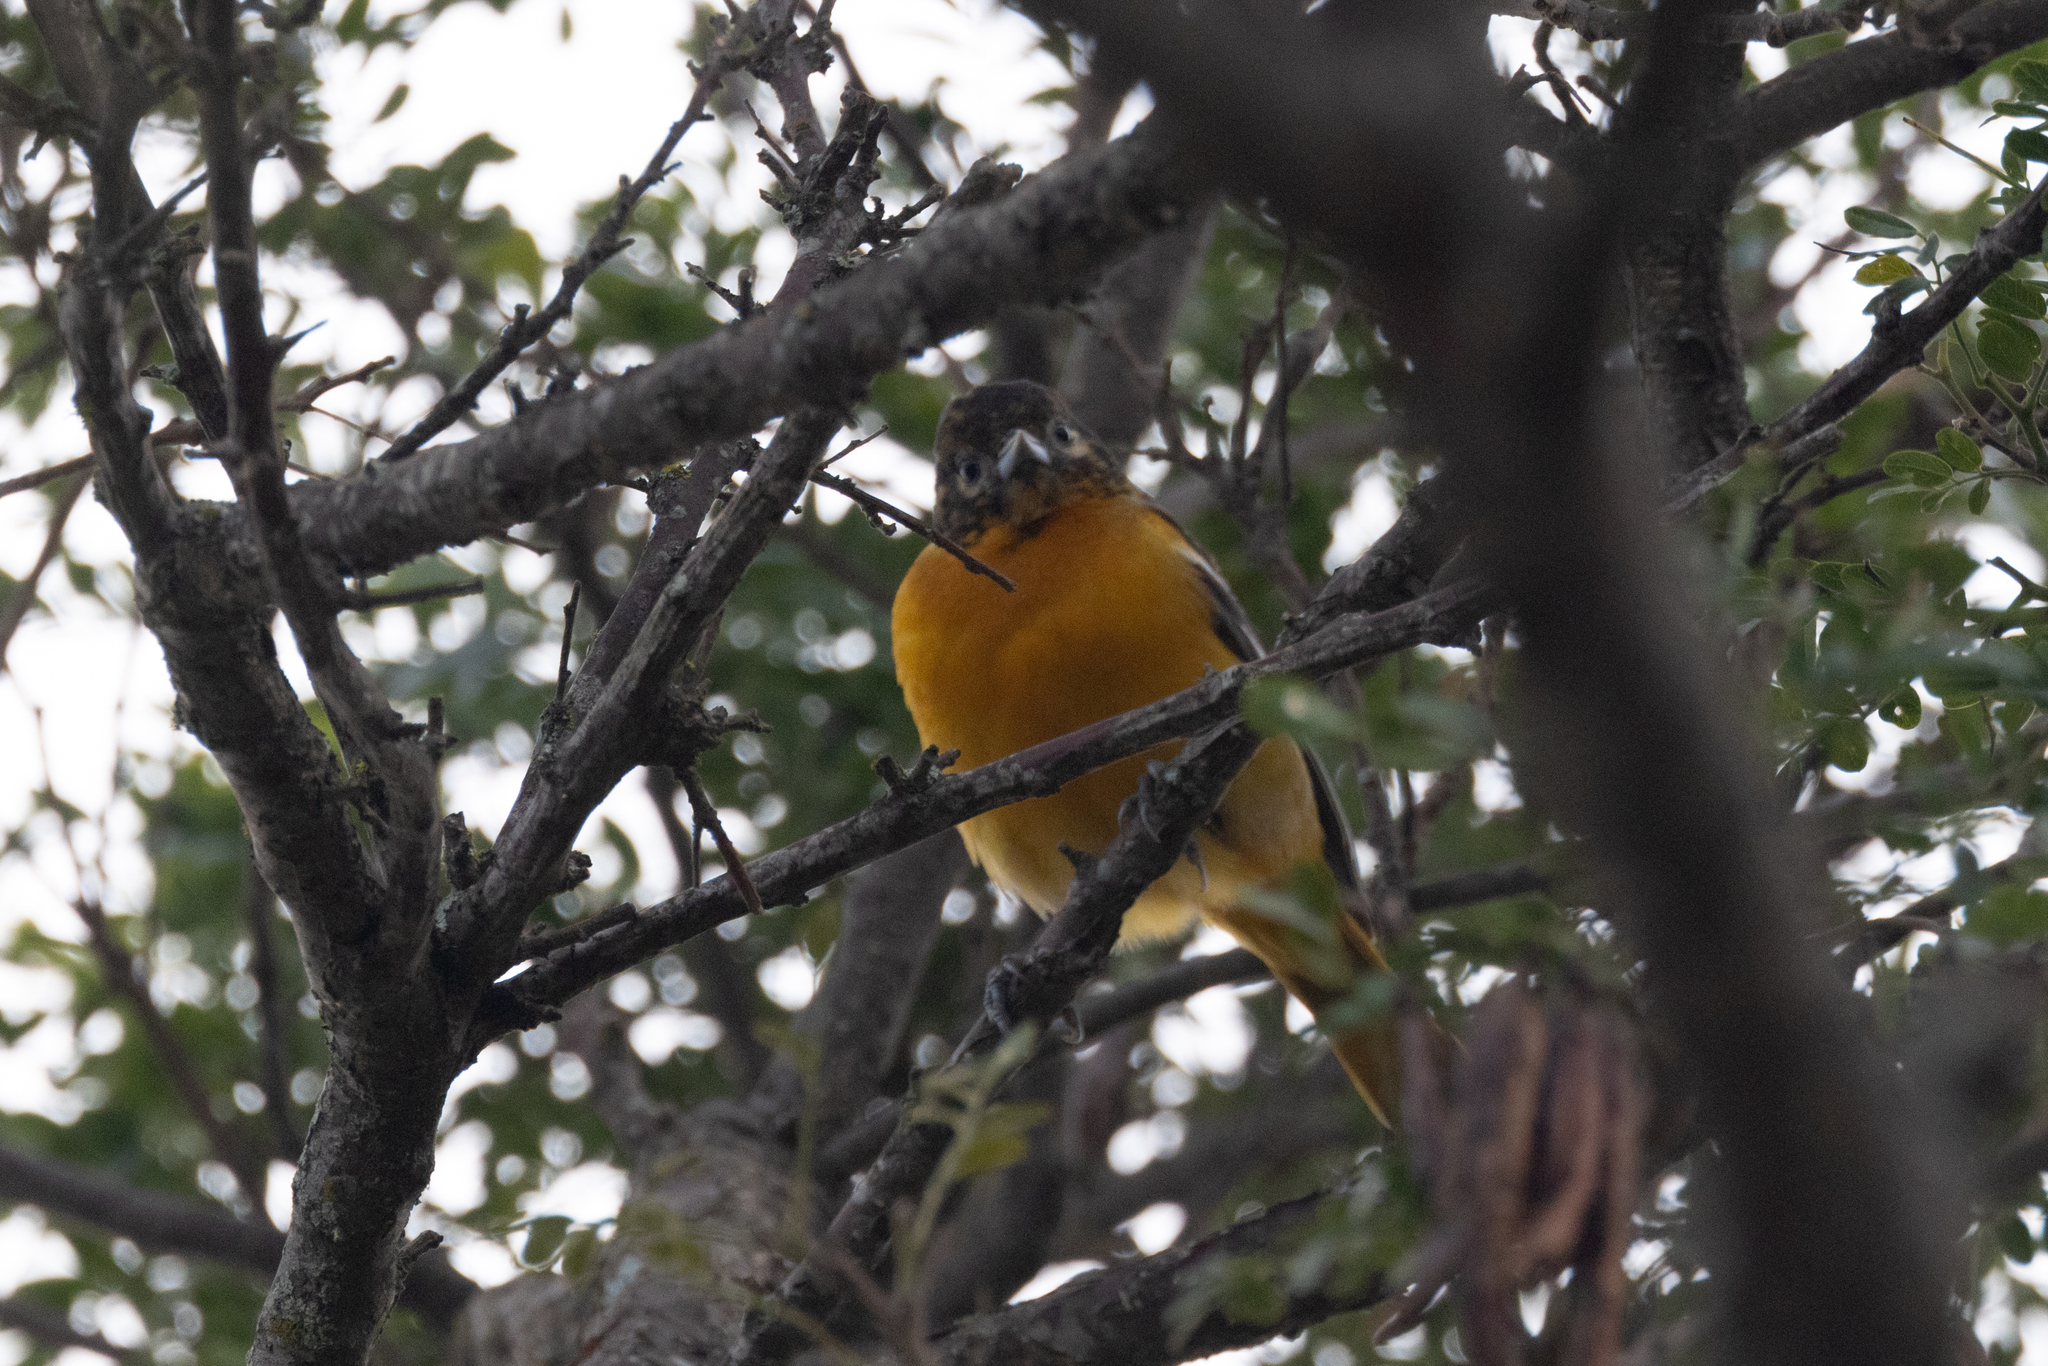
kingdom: Animalia
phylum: Chordata
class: Aves
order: Passeriformes
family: Icteridae
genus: Icterus
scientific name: Icterus galbula
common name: Baltimore oriole
